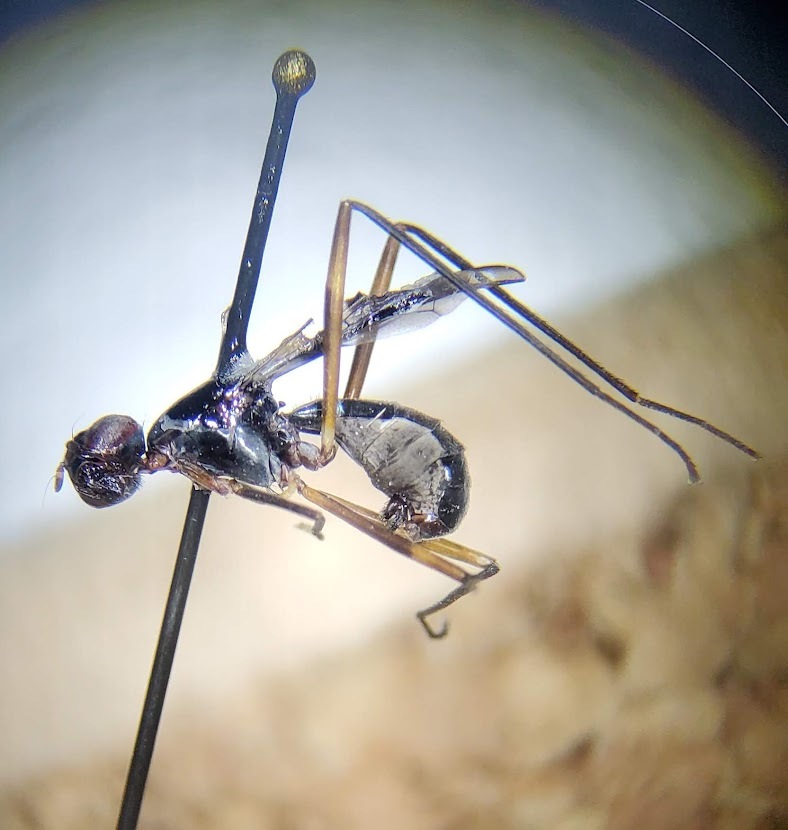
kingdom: Animalia
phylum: Arthropoda
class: Insecta
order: Diptera
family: Micropezidae
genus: Taeniaptera
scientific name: Taeniaptera trivittata
